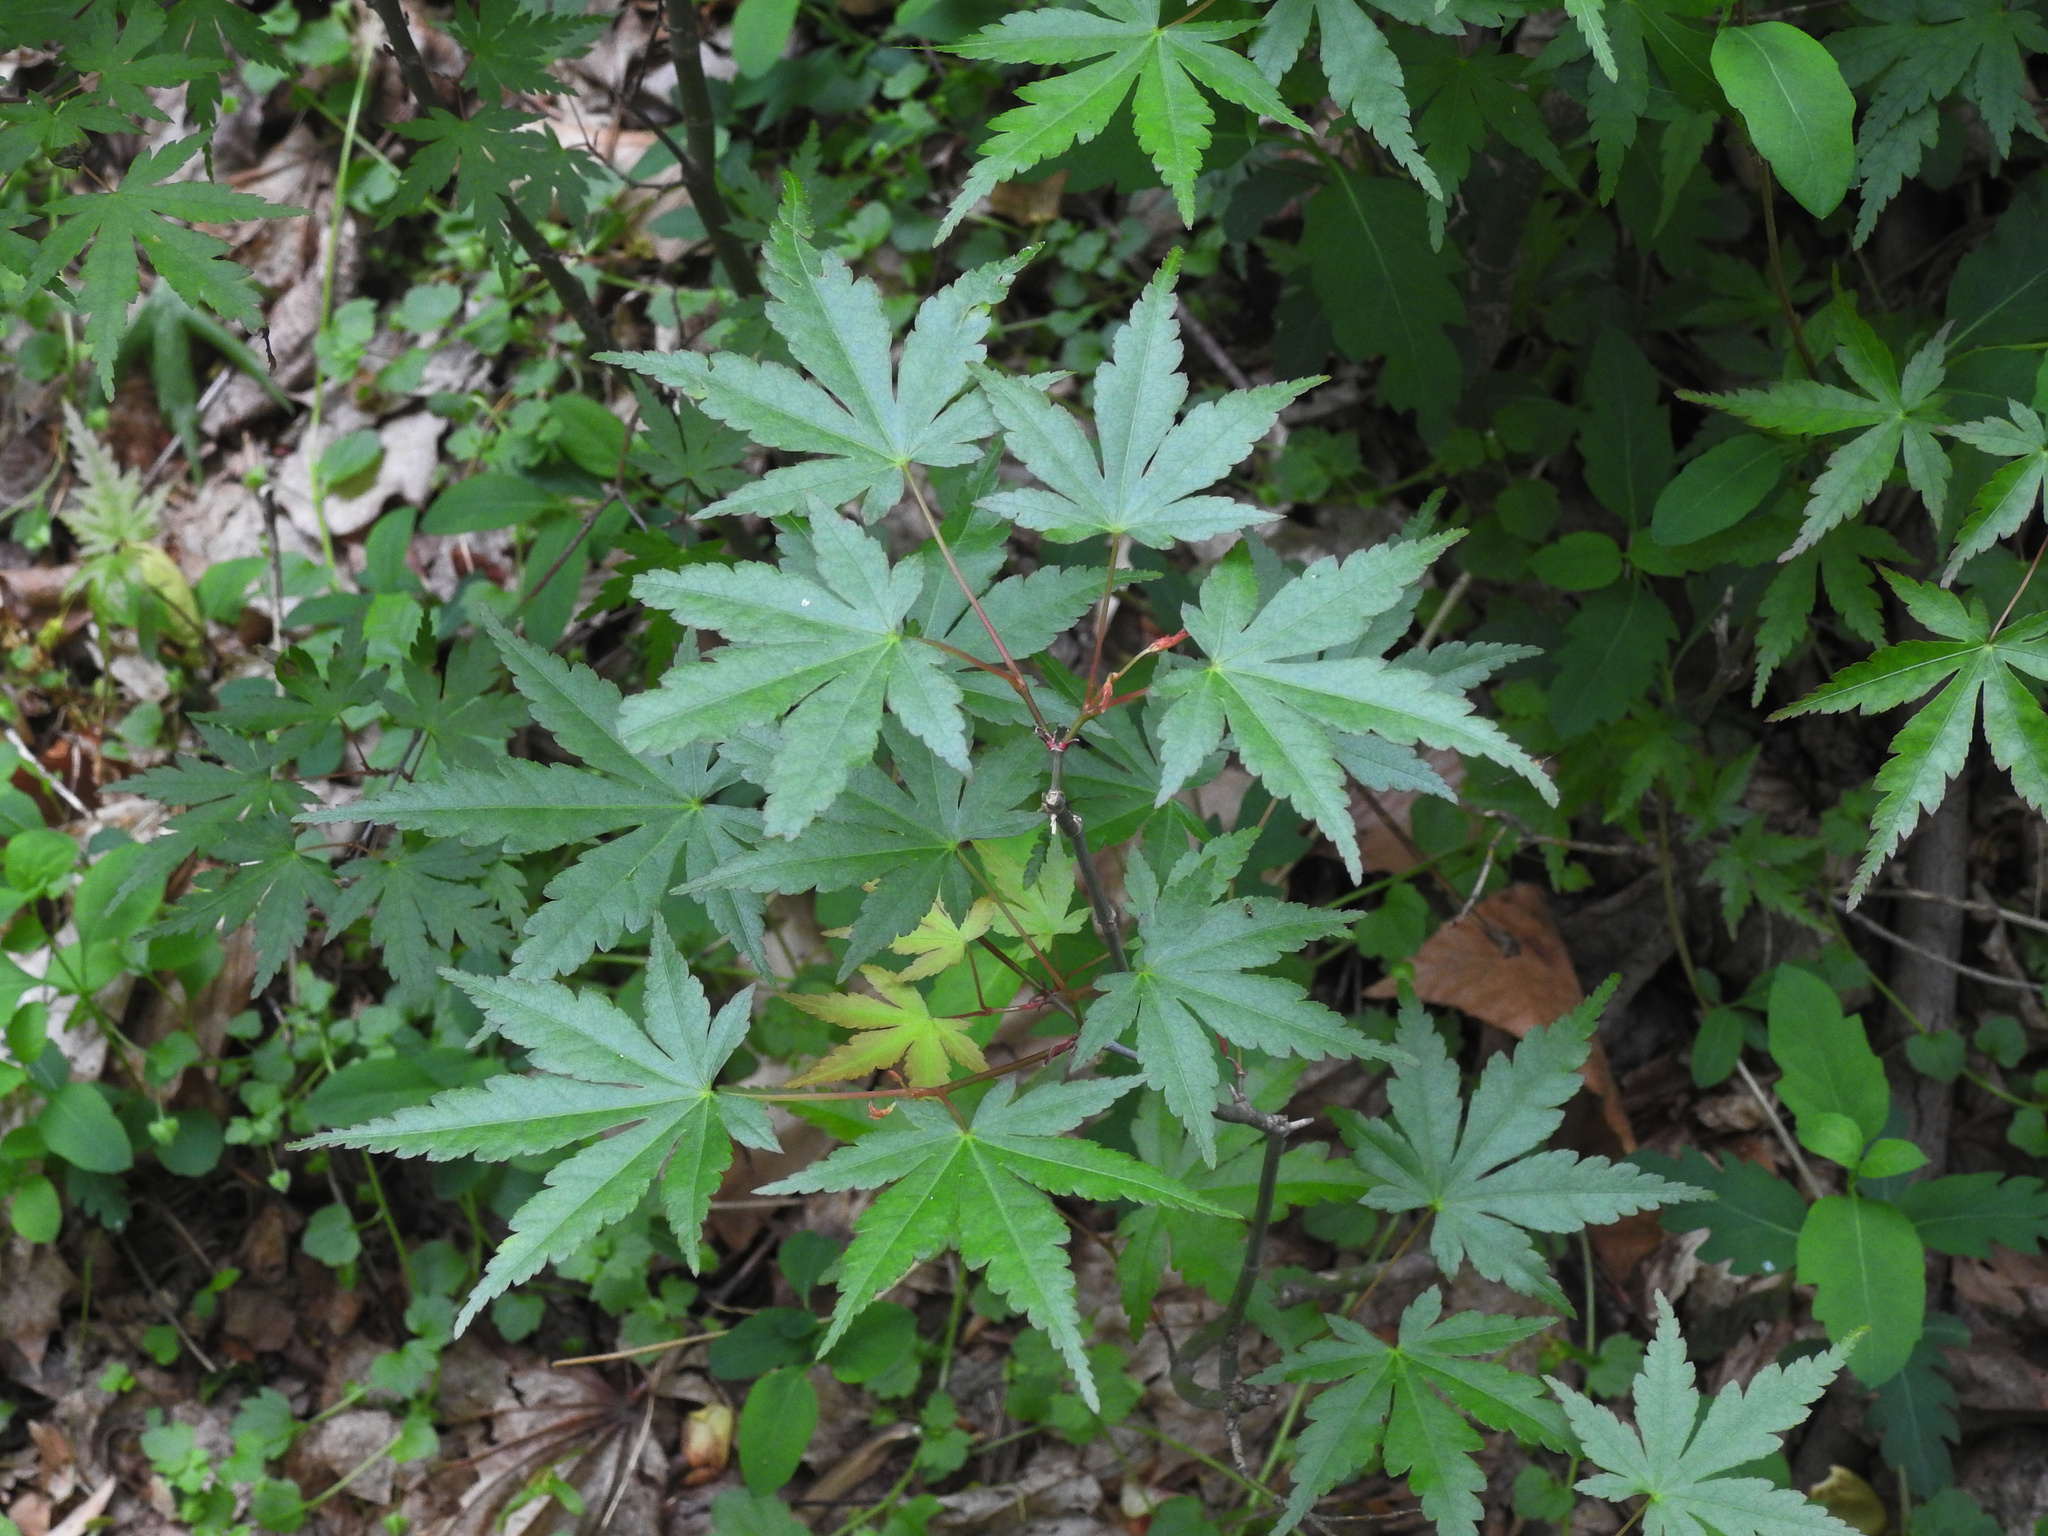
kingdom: Plantae
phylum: Tracheophyta
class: Magnoliopsida
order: Sapindales
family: Sapindaceae
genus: Acer
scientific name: Acer palmatum
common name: Japanese maple
